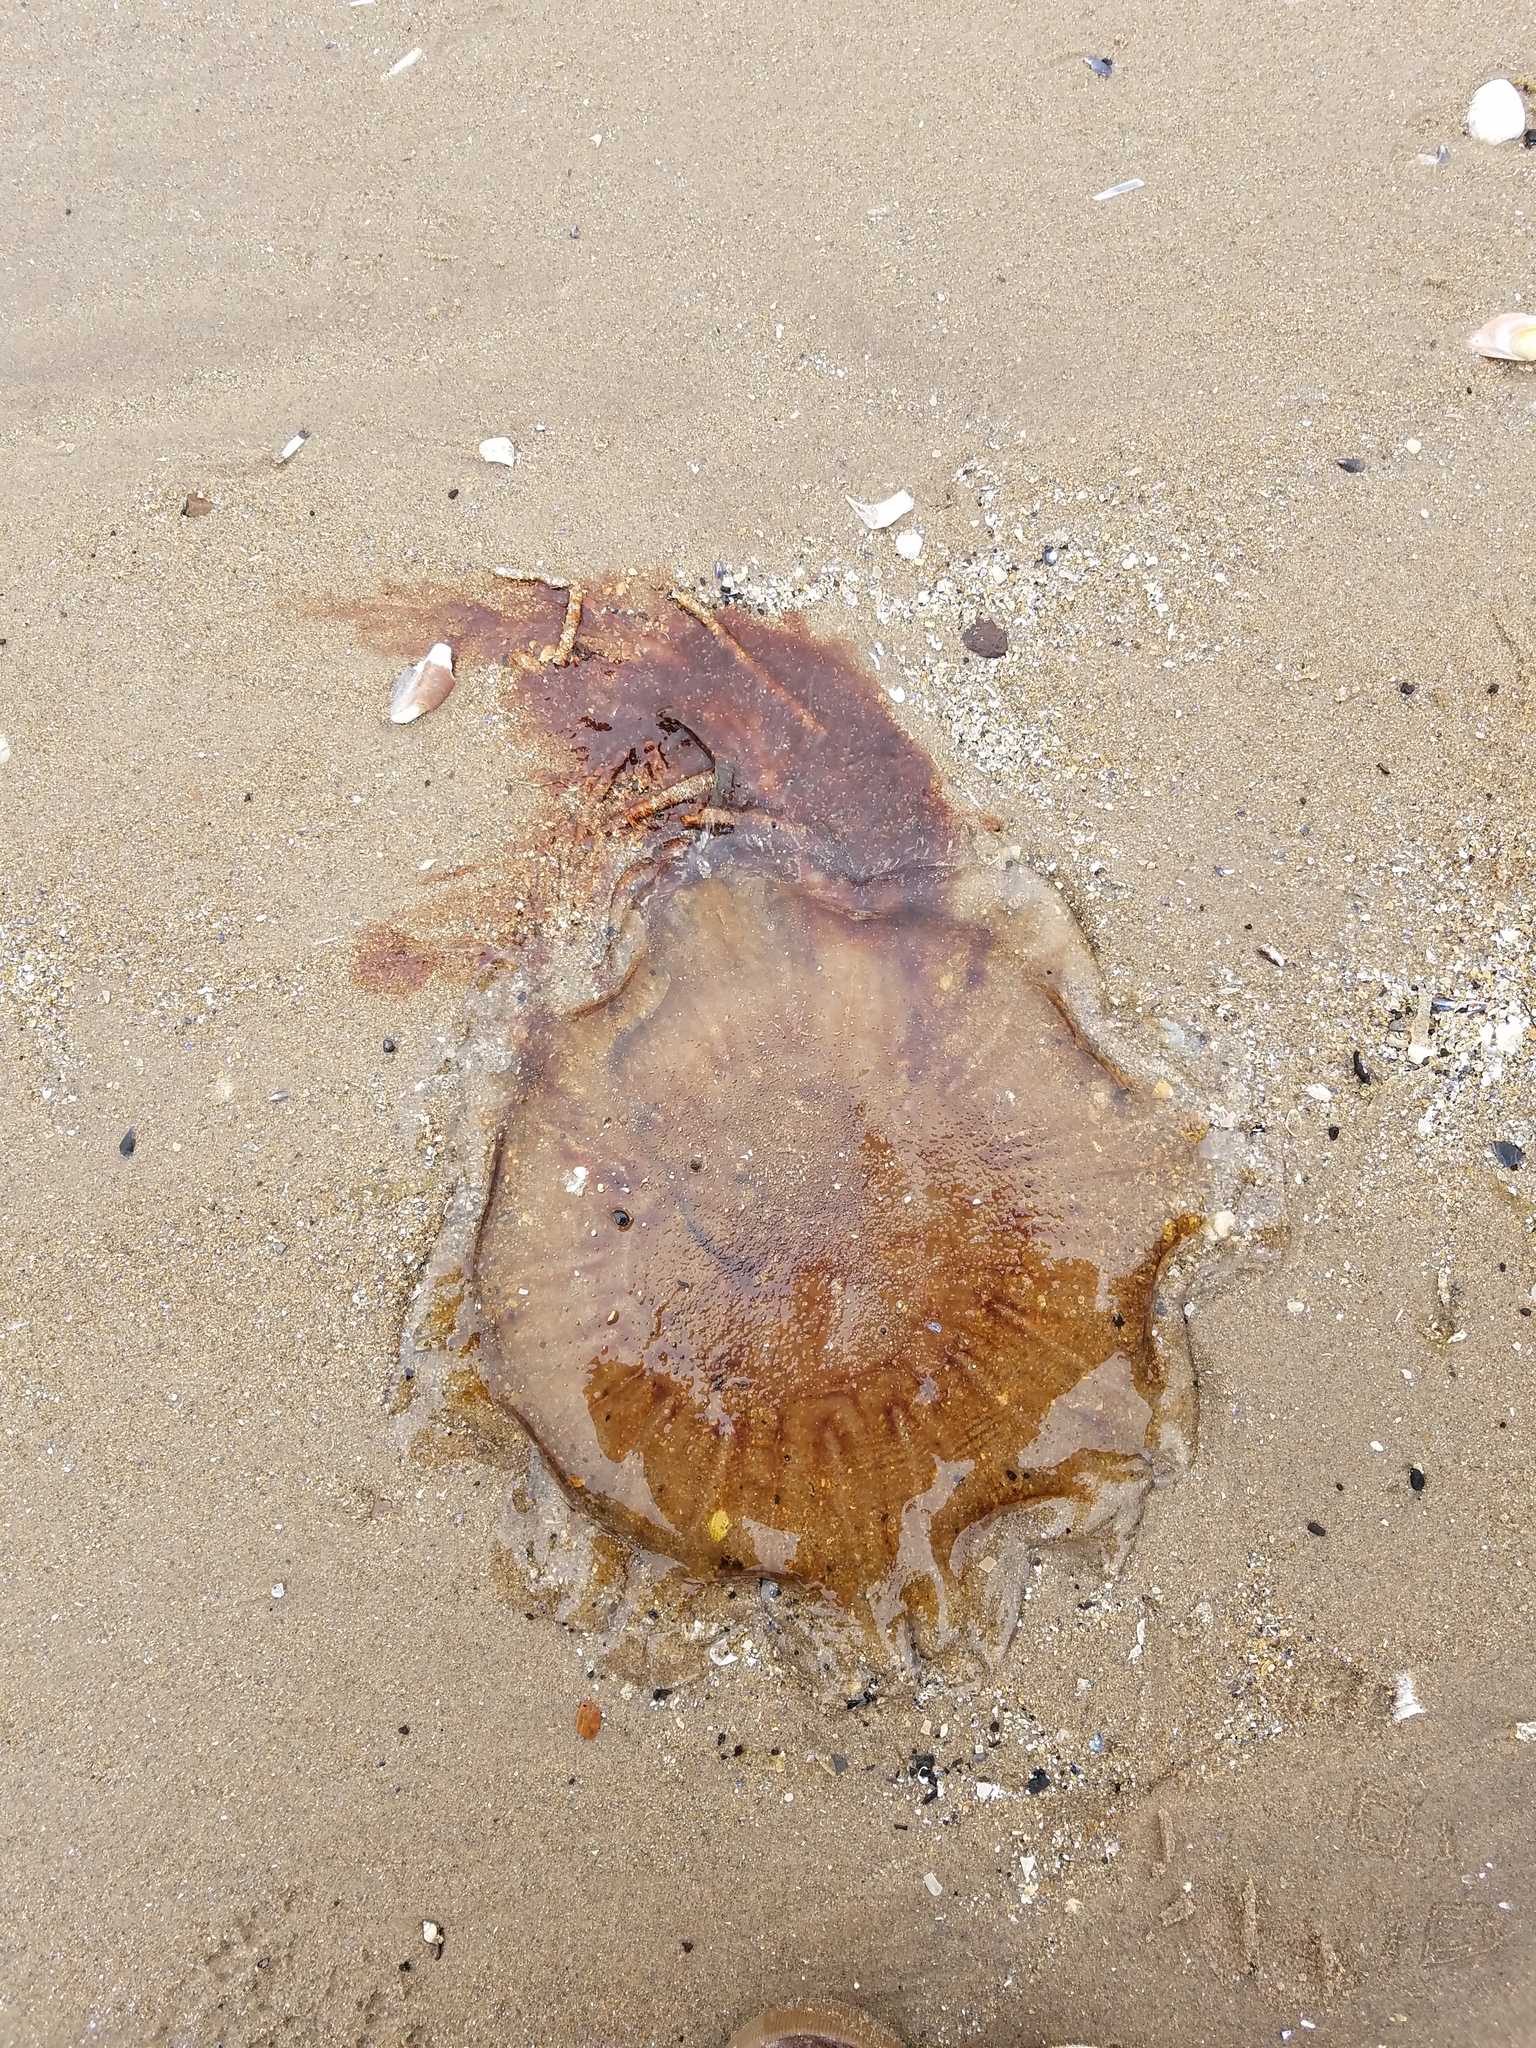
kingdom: Animalia
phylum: Cnidaria
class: Scyphozoa
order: Semaeostomeae
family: Cyaneidae
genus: Cyanea
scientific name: Cyanea capillata
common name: Lion's mane jellyfish
